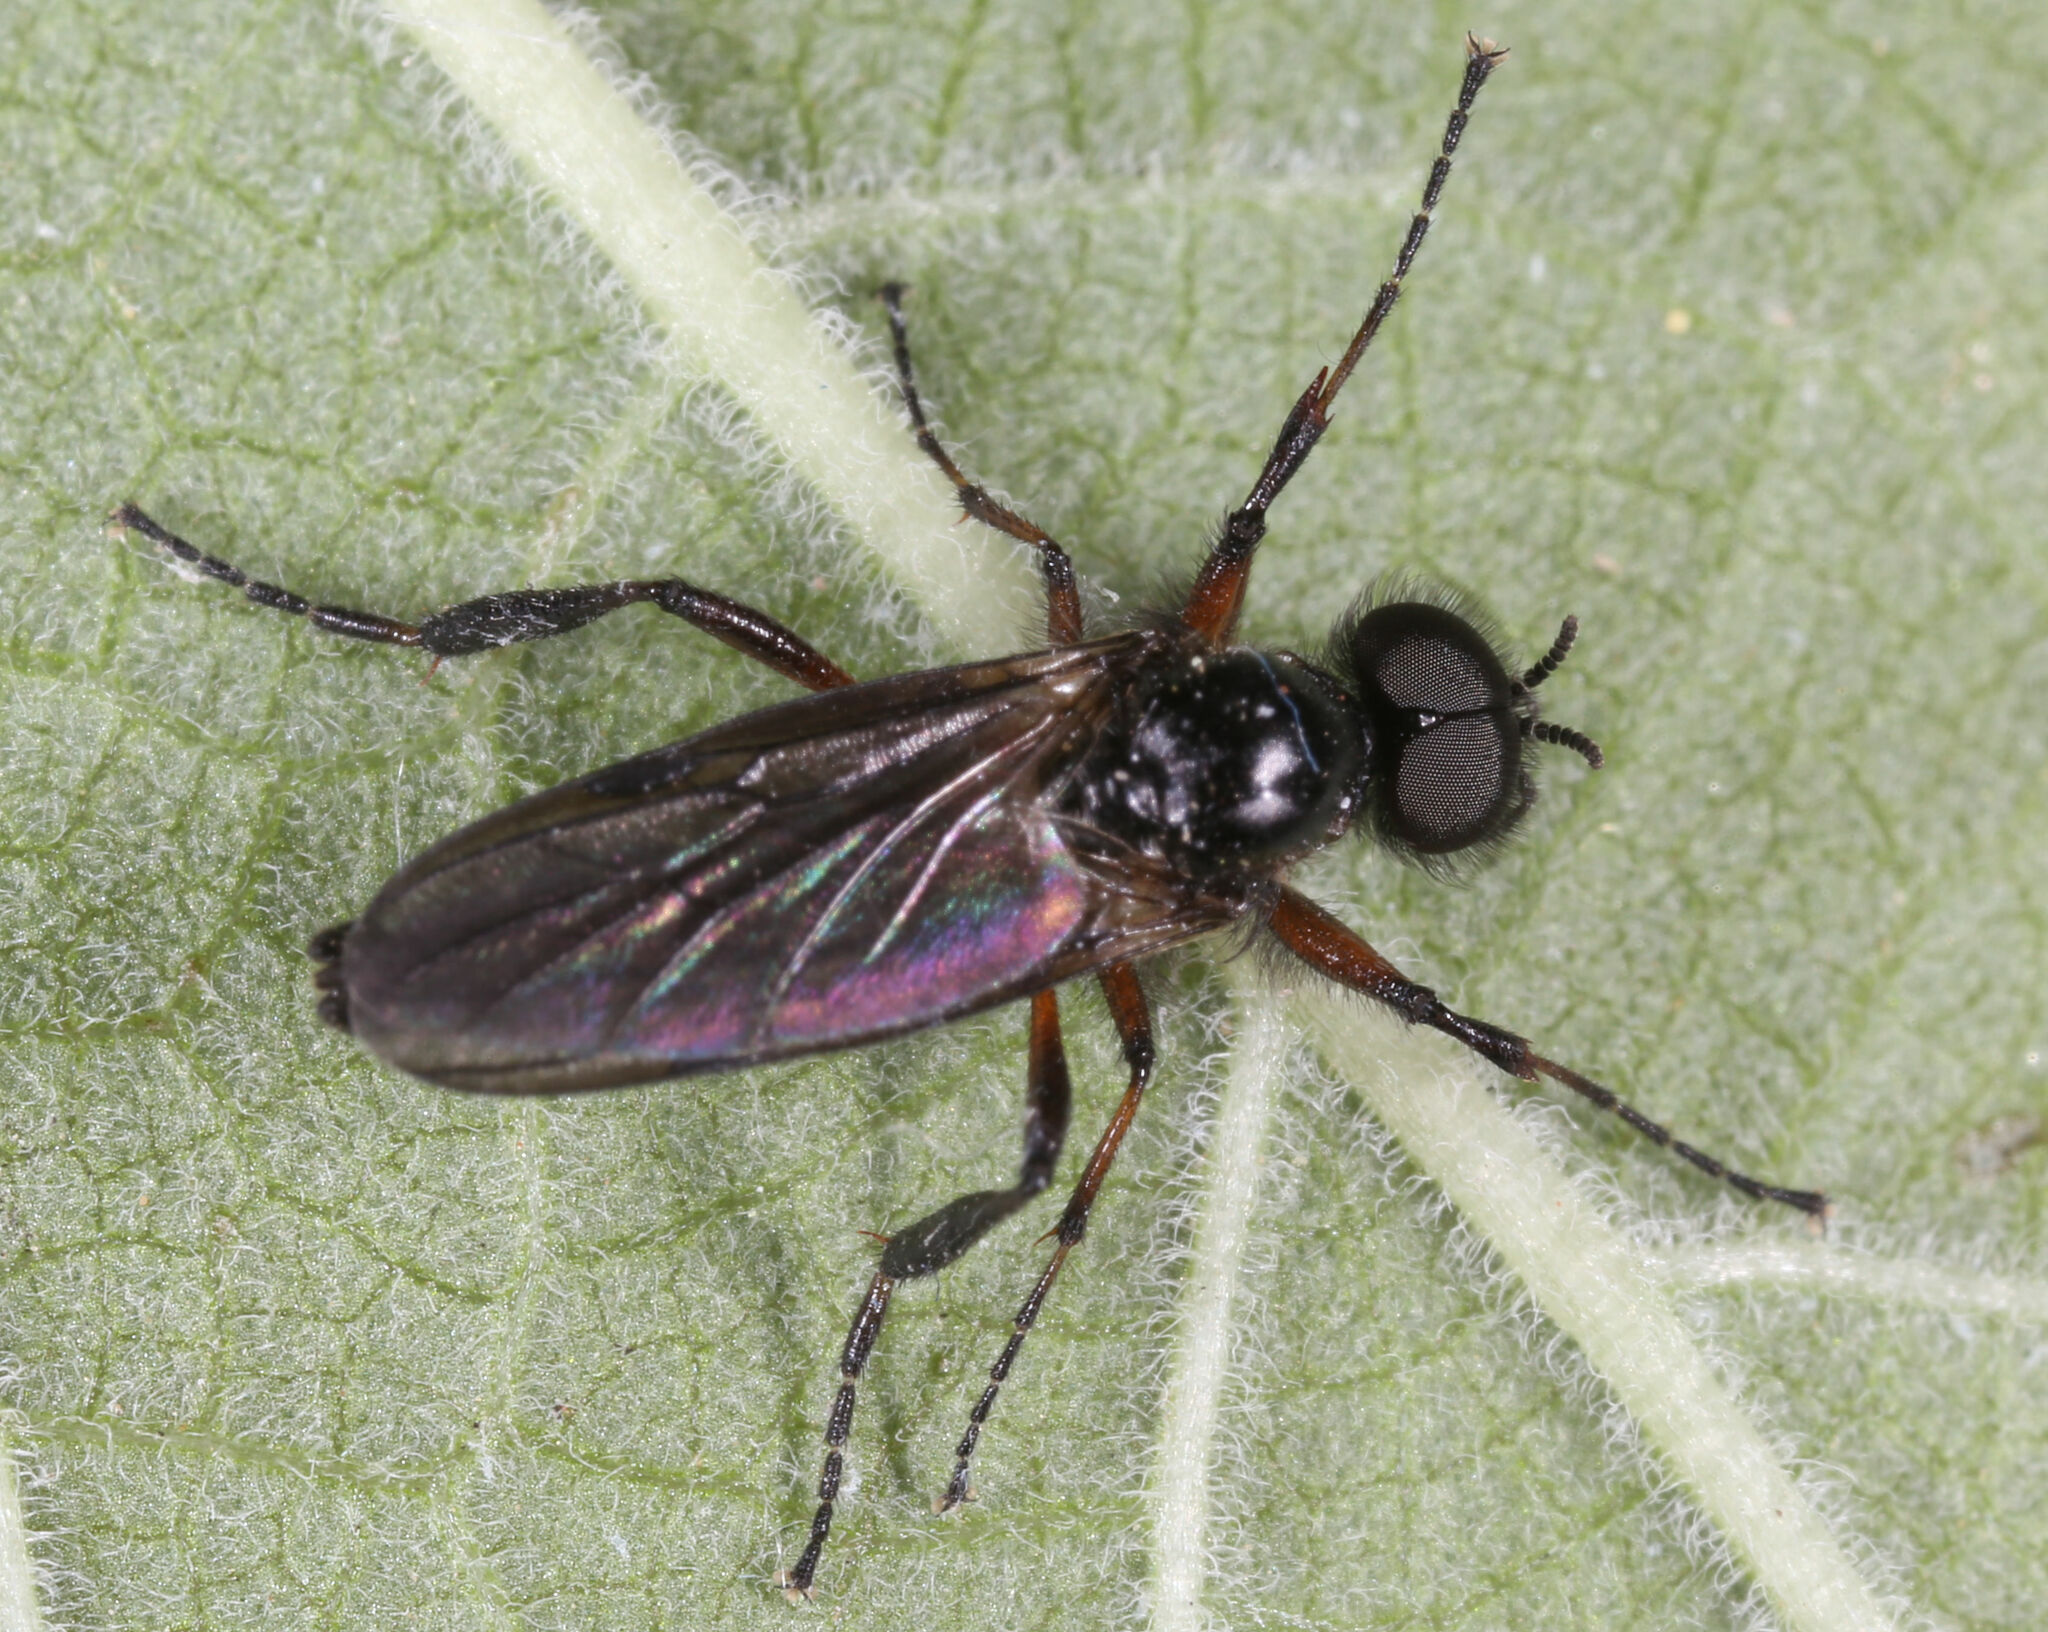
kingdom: Animalia
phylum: Arthropoda
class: Insecta
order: Diptera
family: Bibionidae
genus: Bibio
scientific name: Bibio
